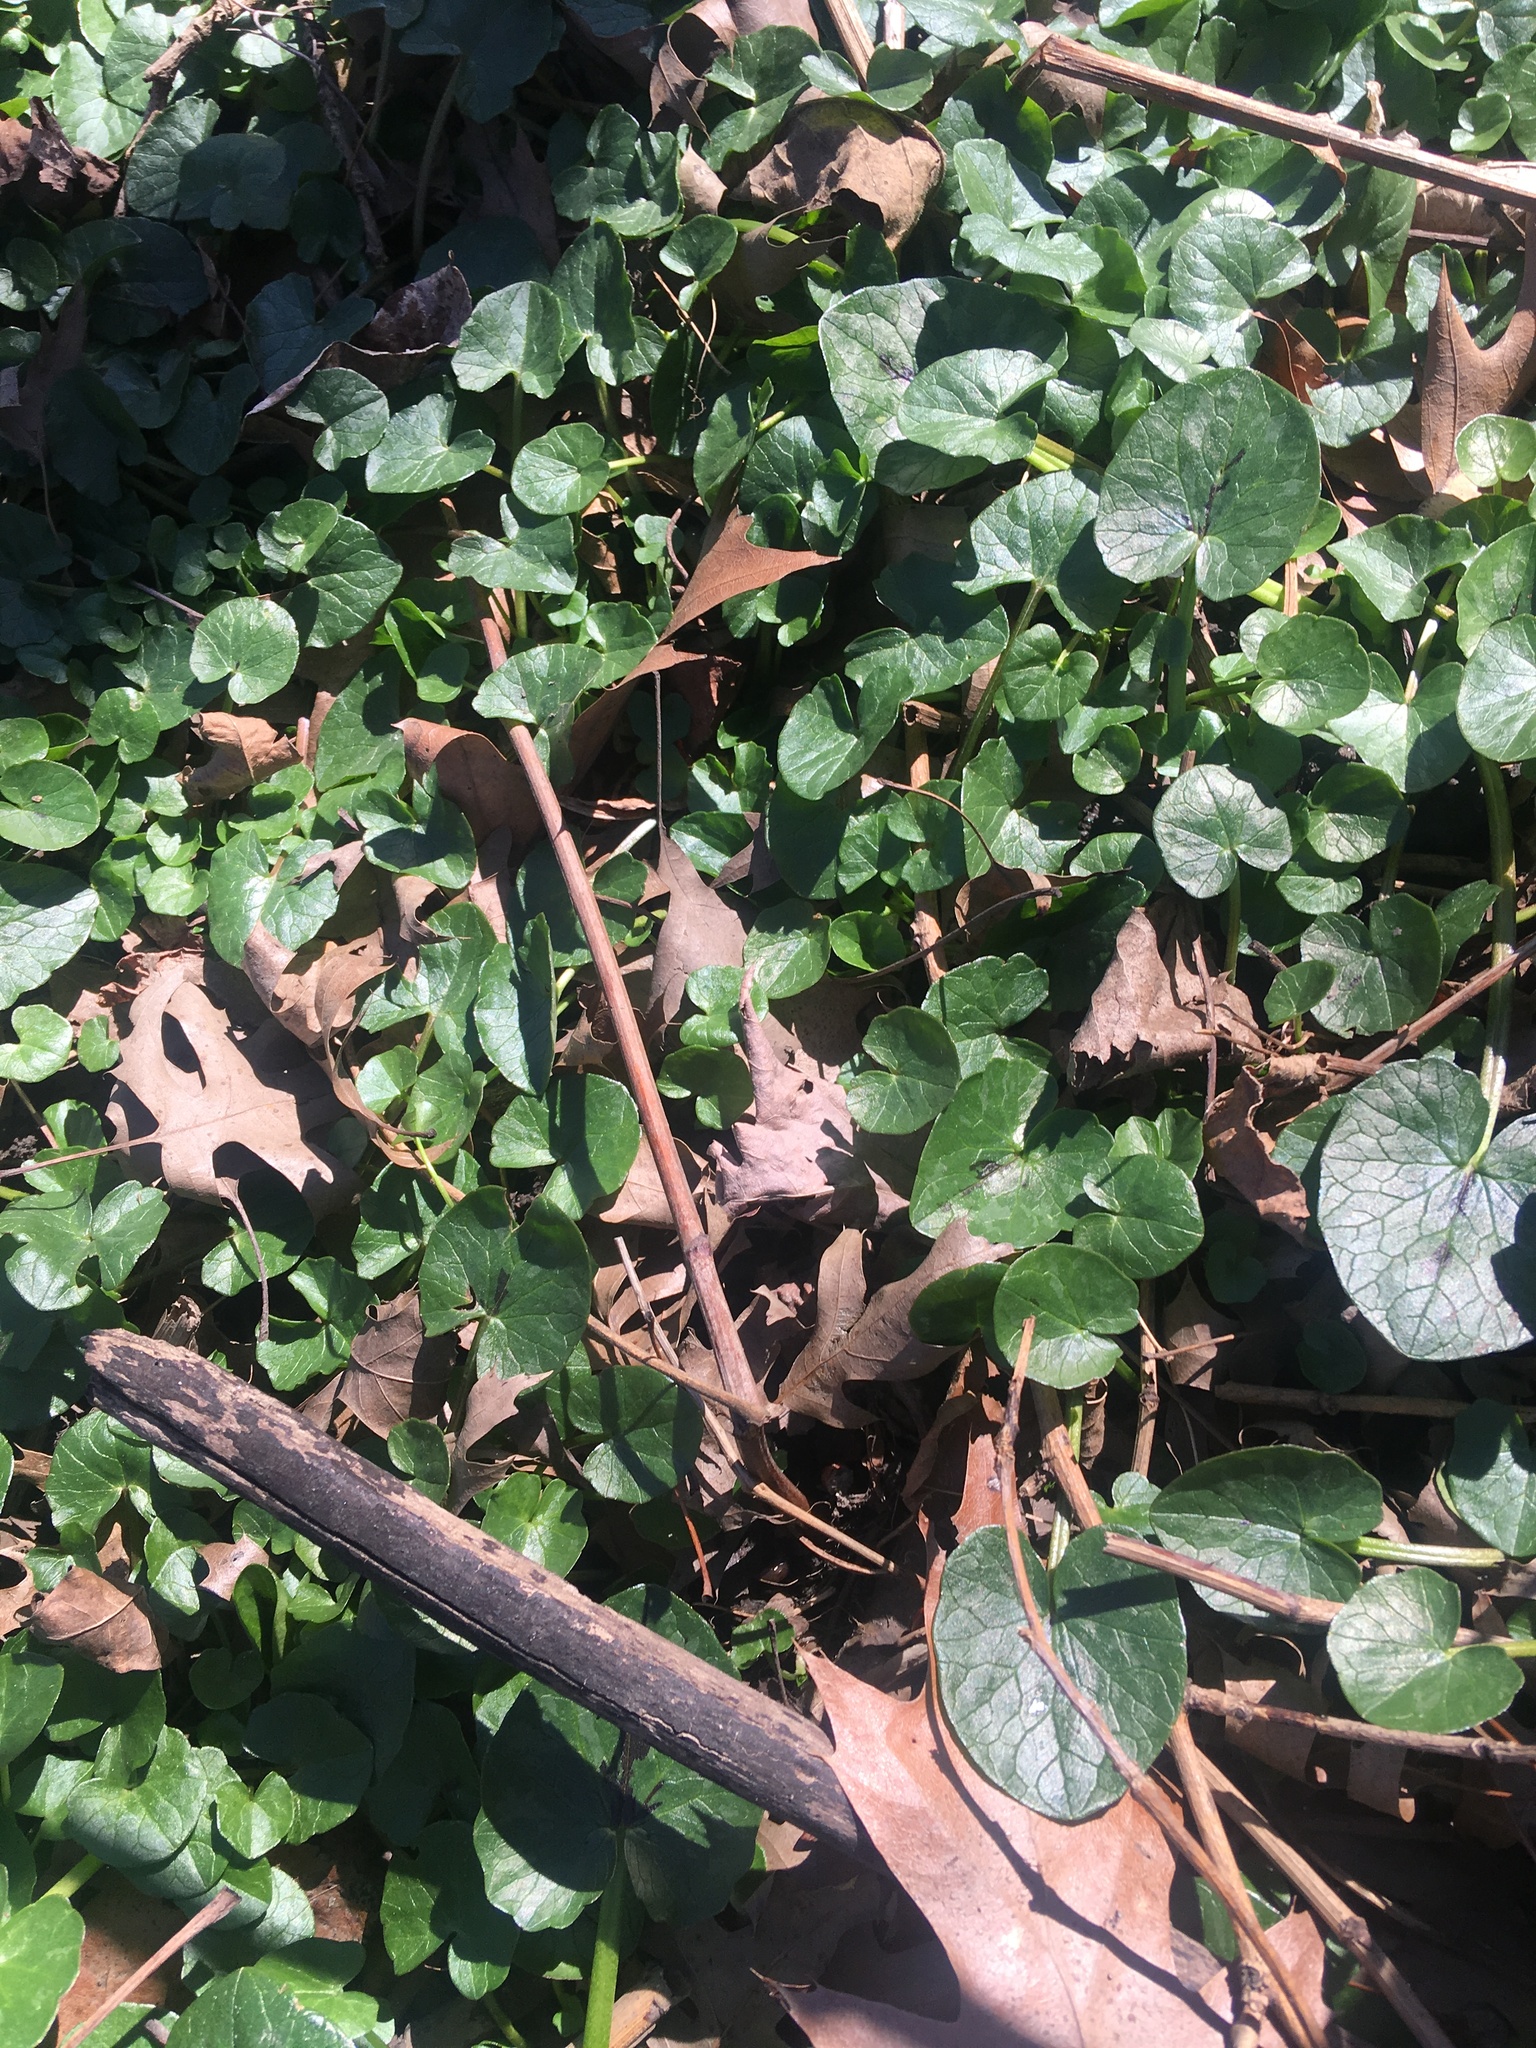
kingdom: Plantae
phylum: Tracheophyta
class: Magnoliopsida
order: Ranunculales
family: Ranunculaceae
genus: Ficaria
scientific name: Ficaria verna
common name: Lesser celandine
